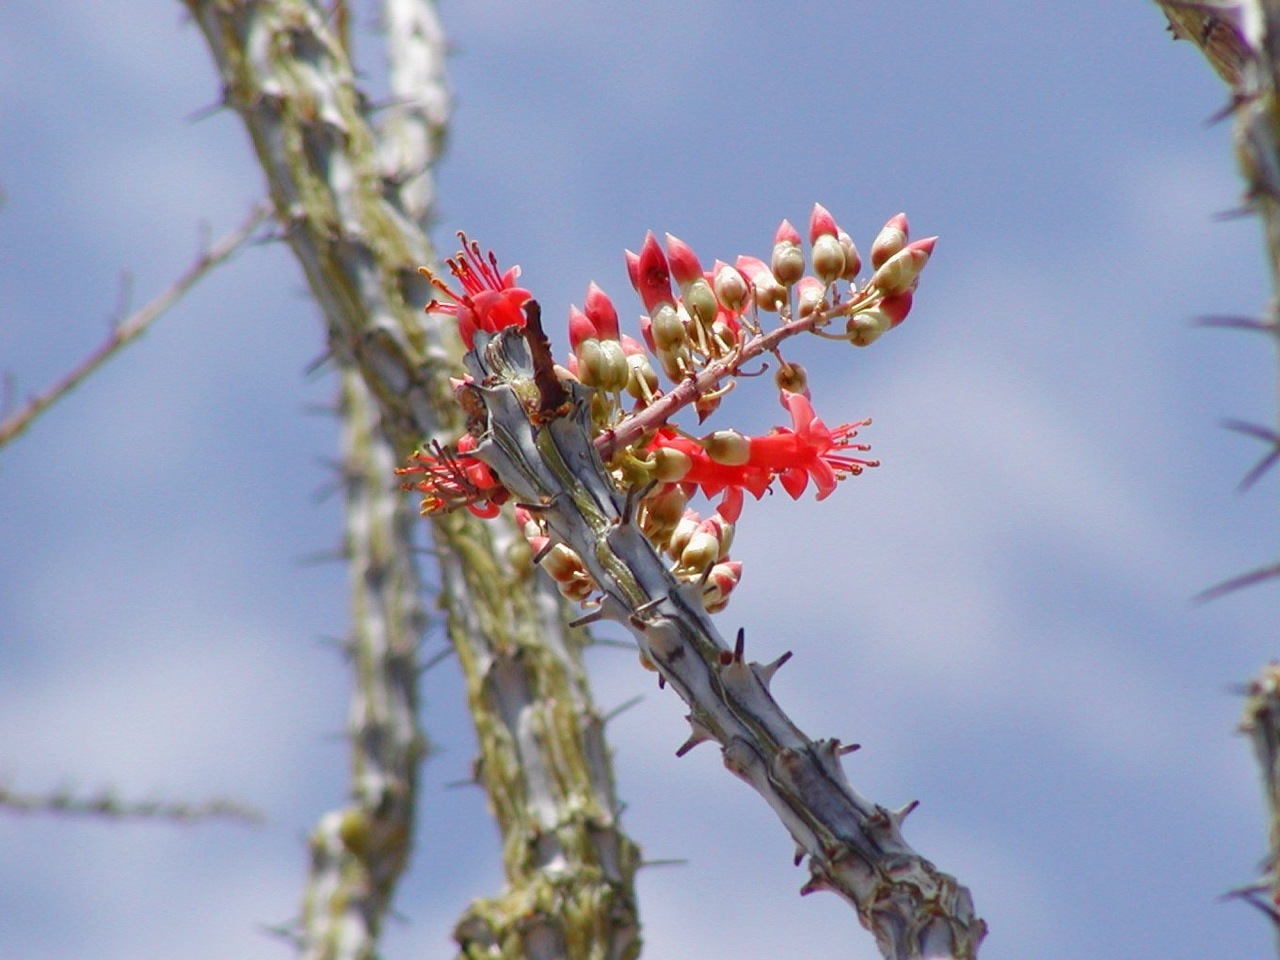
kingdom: Plantae
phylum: Tracheophyta
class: Magnoliopsida
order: Ericales
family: Fouquieriaceae
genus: Fouquieria
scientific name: Fouquieria splendens
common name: Vine-cactus
